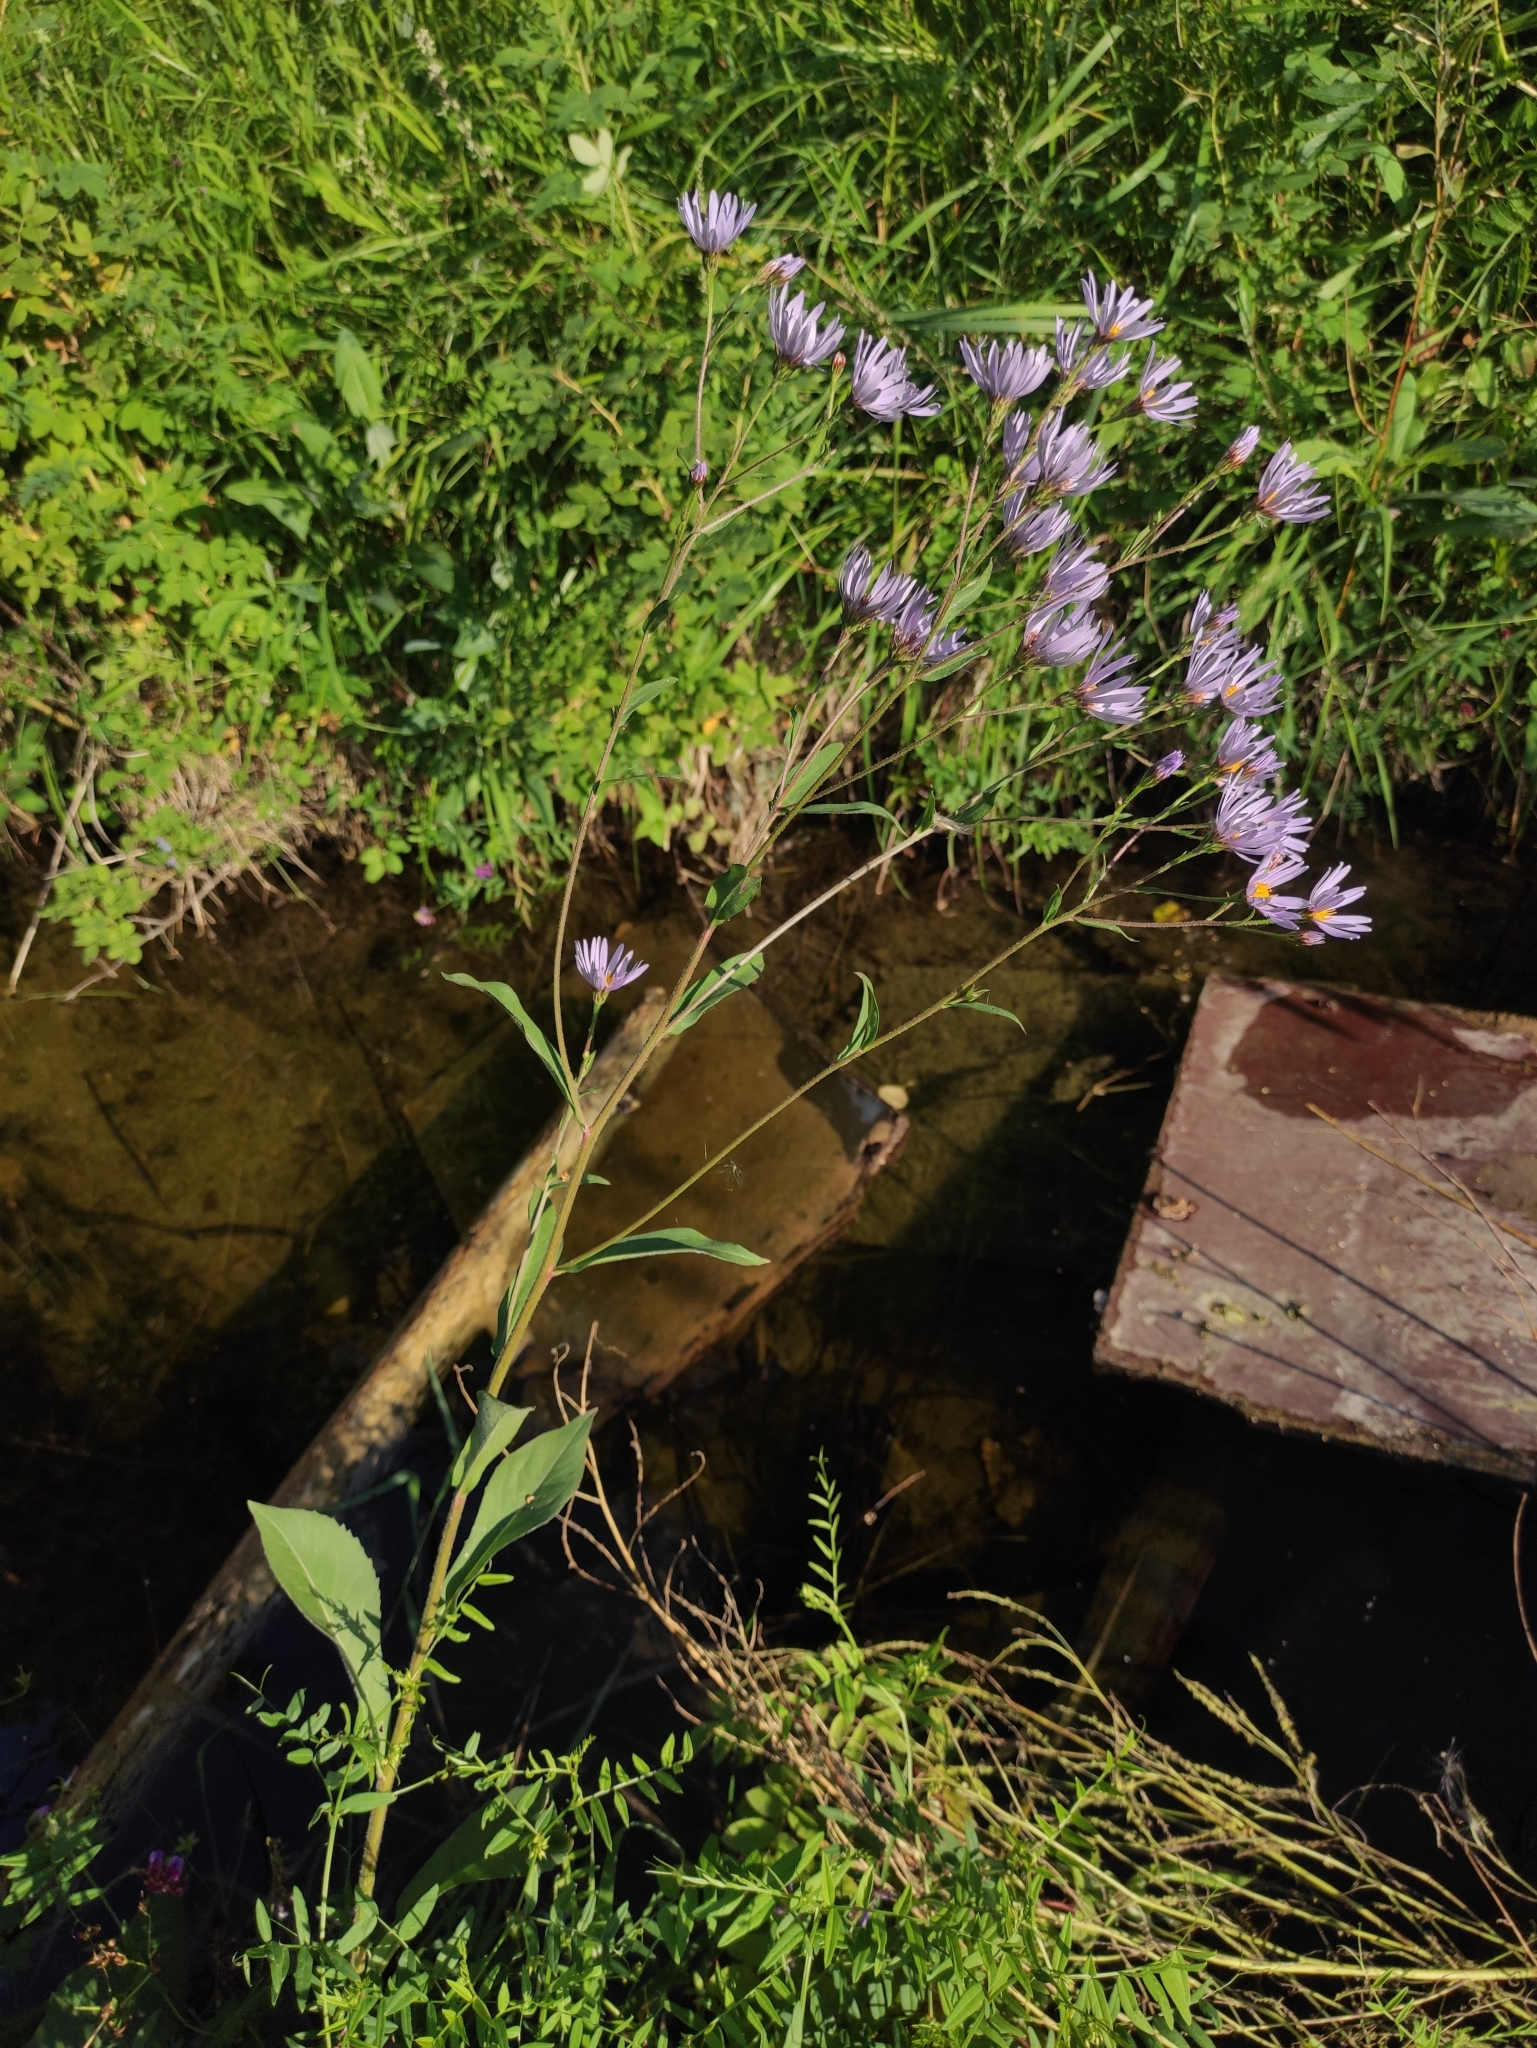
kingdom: Plantae
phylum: Tracheophyta
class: Magnoliopsida
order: Asterales
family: Asteraceae
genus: Aster
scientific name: Aster tataricus
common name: Tatarian aster
